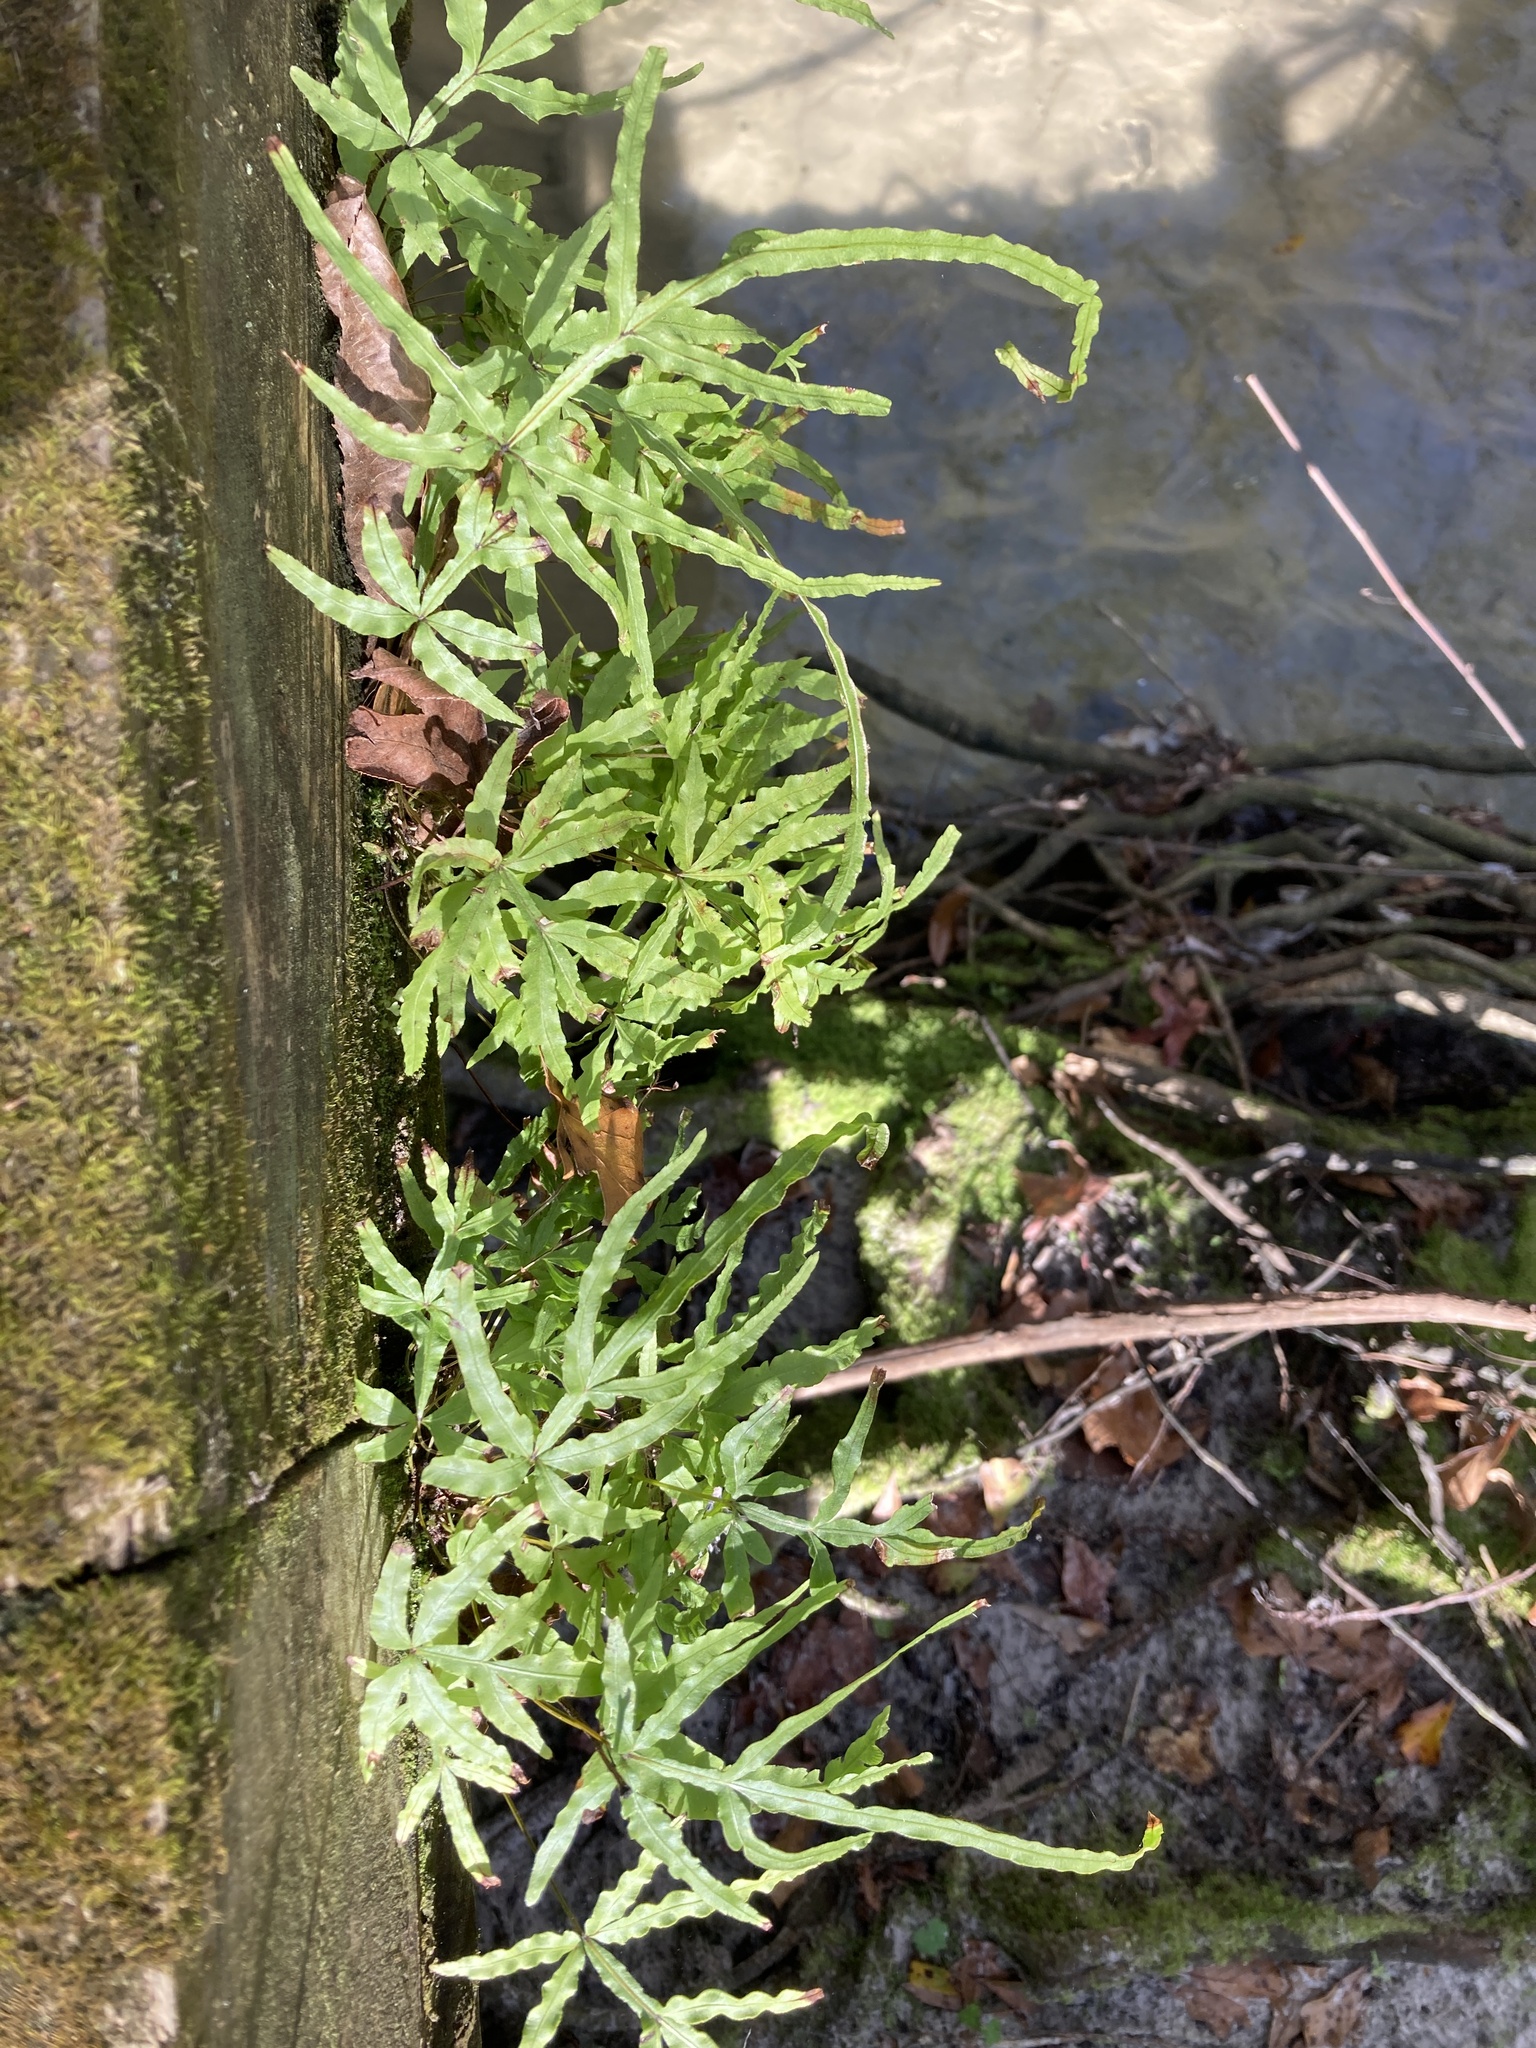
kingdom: Plantae
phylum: Tracheophyta
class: Polypodiopsida
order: Polypodiales
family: Pteridaceae
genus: Pteris
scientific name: Pteris multifida
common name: Spider brake
